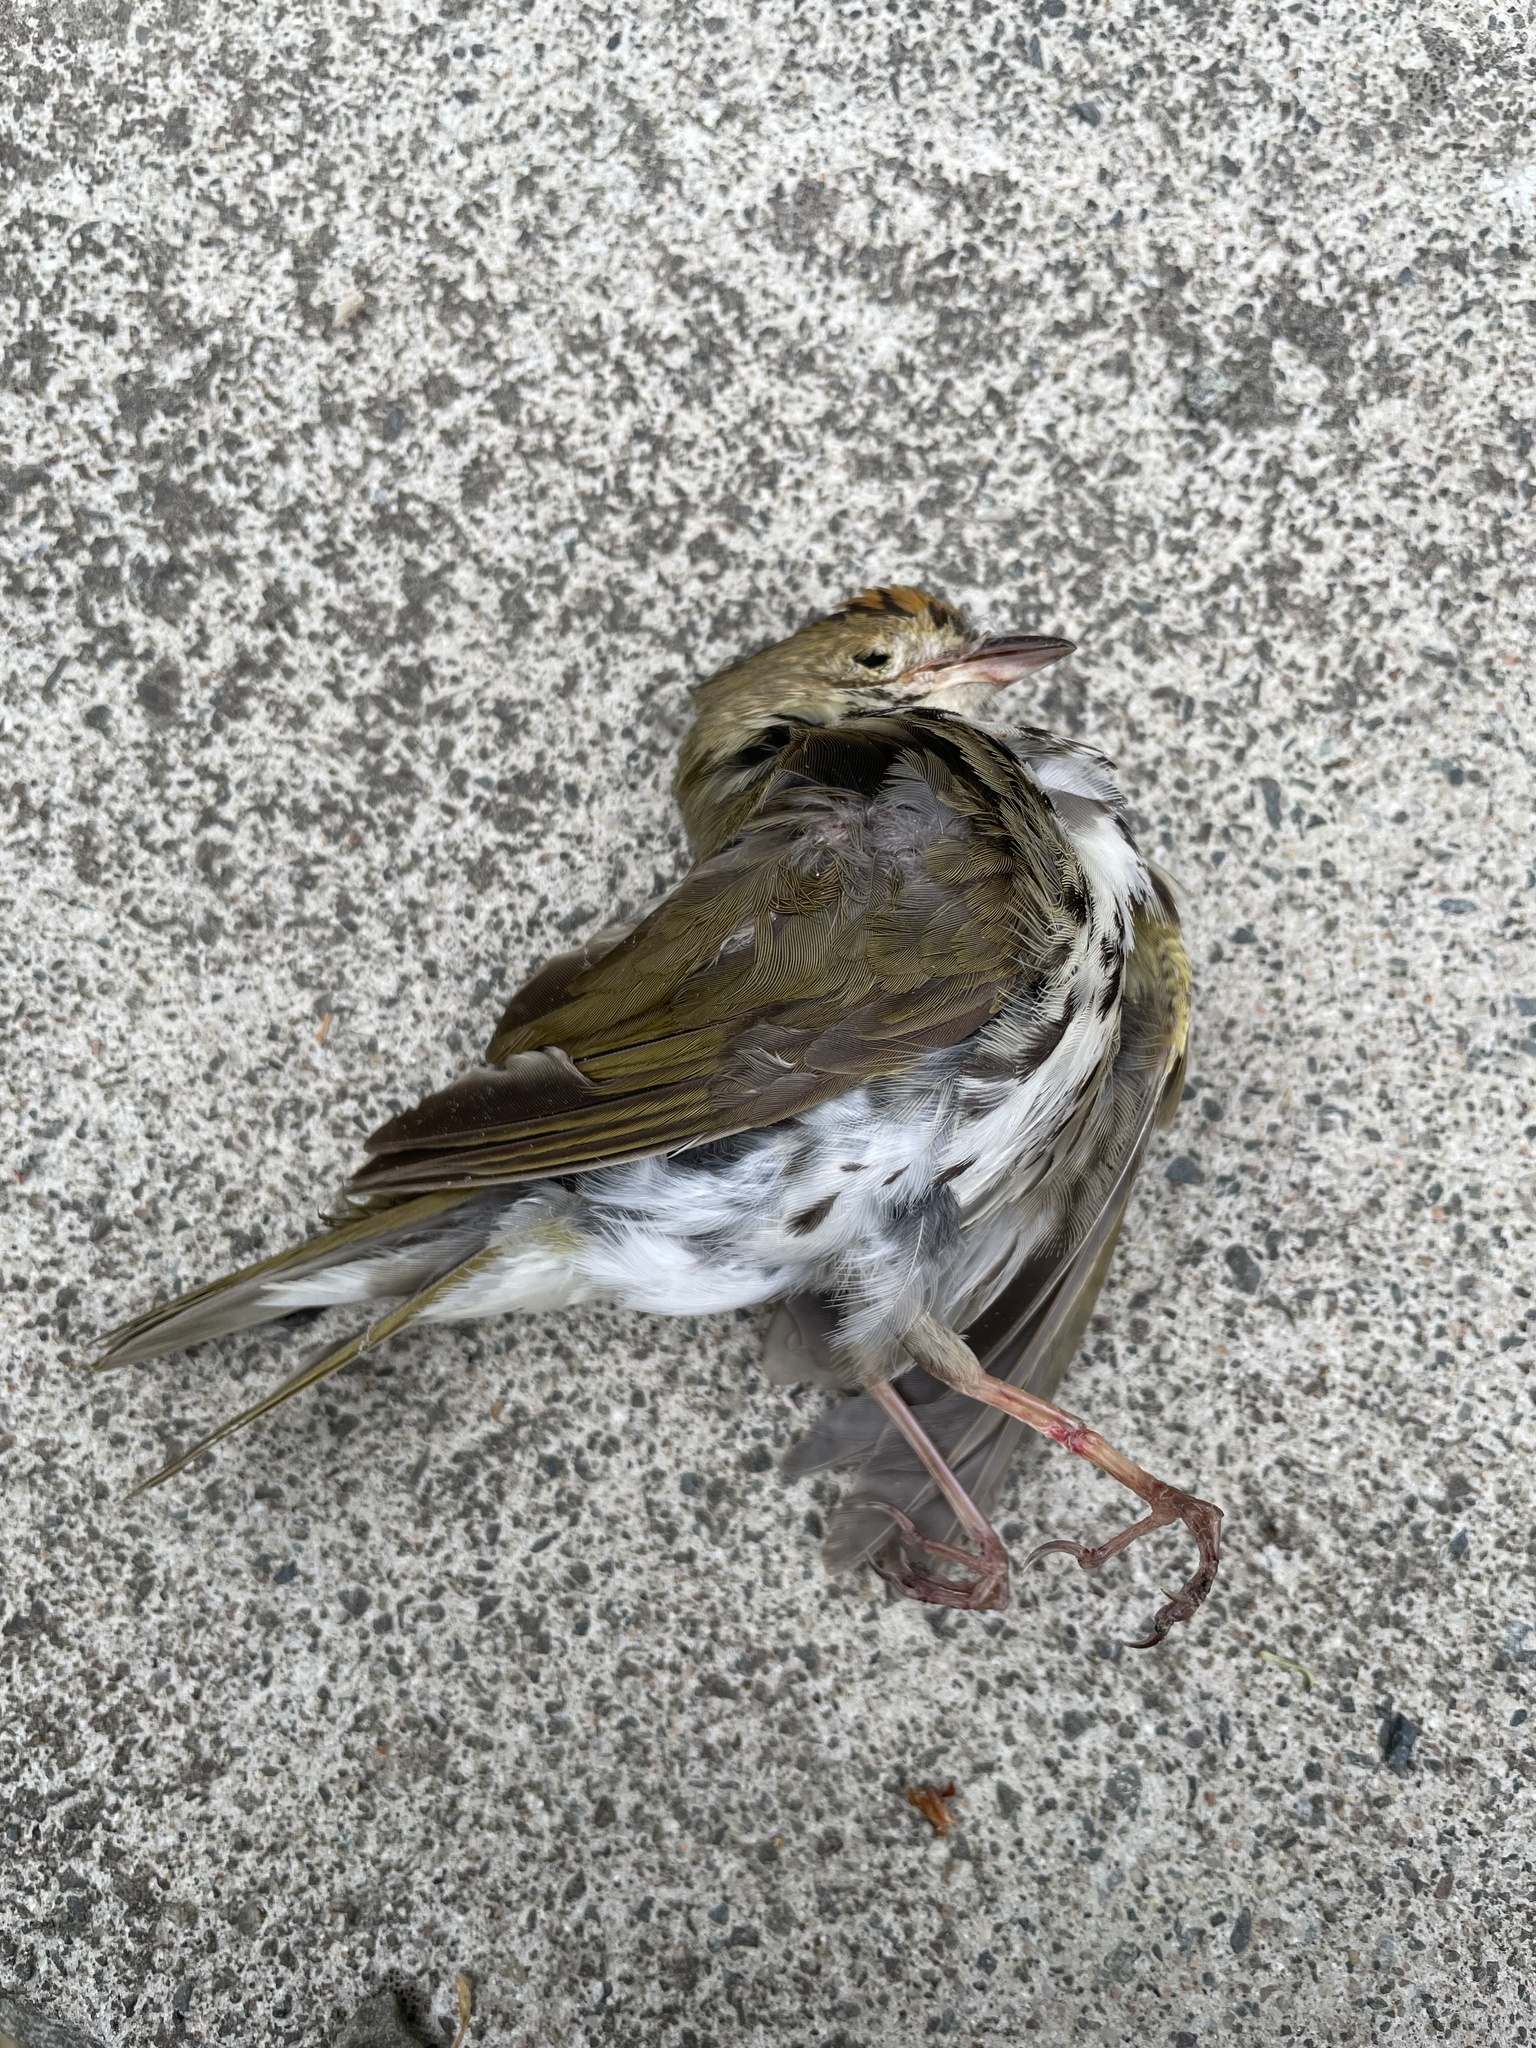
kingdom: Animalia
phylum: Chordata
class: Aves
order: Passeriformes
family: Parulidae
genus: Seiurus
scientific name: Seiurus aurocapilla
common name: Ovenbird
